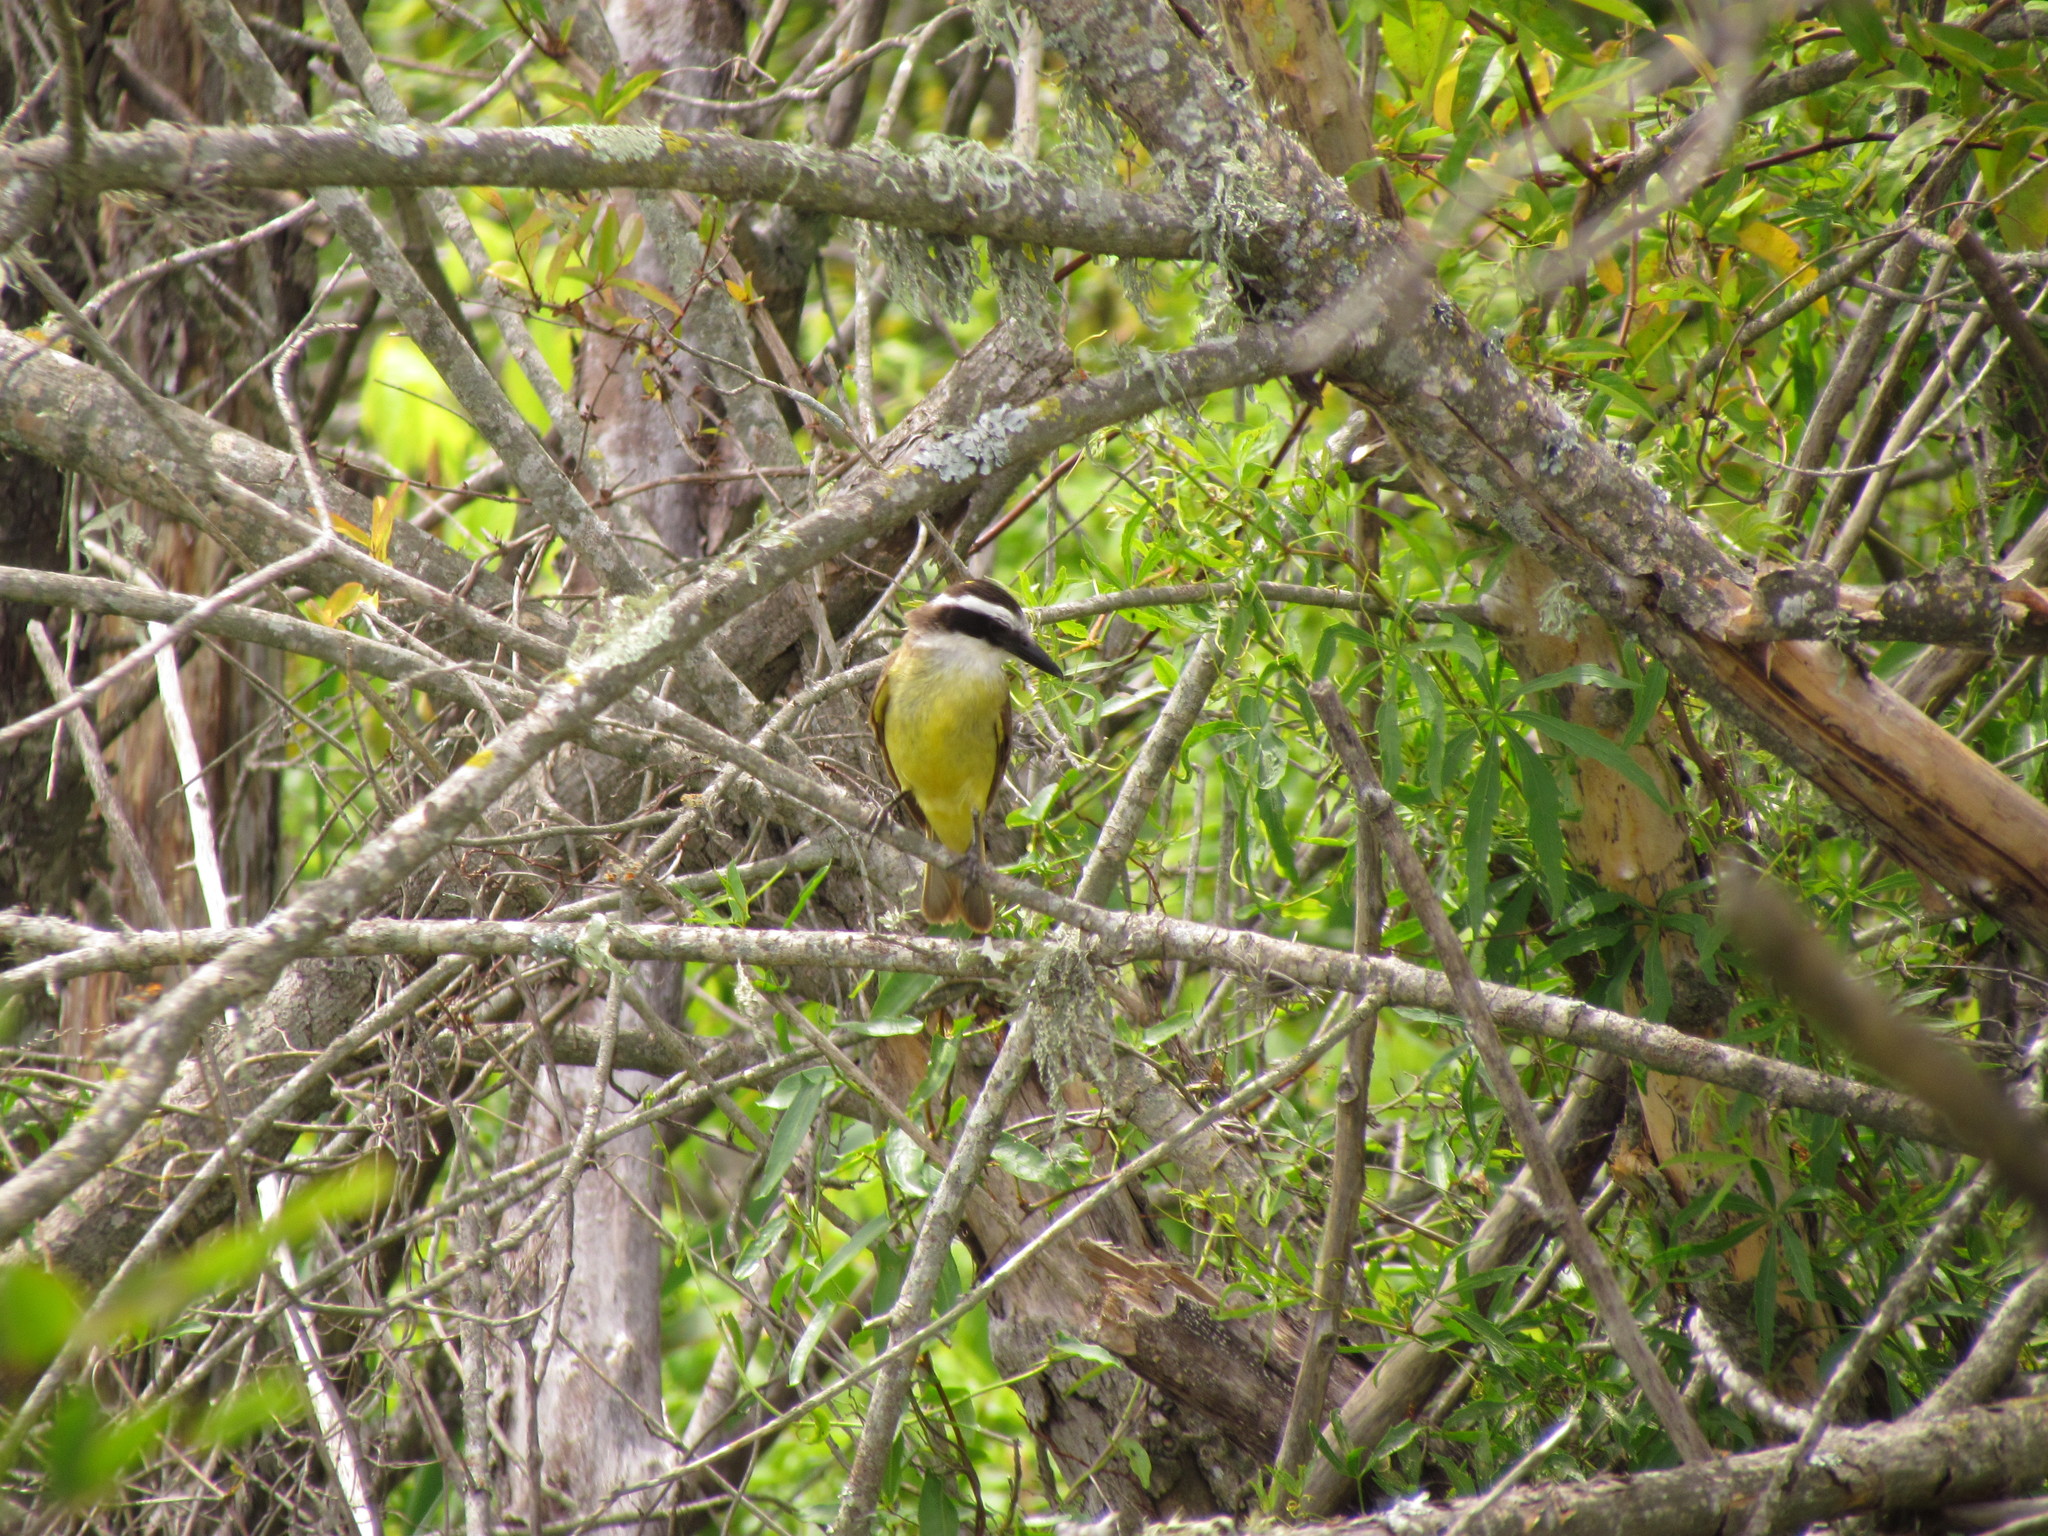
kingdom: Animalia
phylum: Chordata
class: Aves
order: Passeriformes
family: Tyrannidae
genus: Pitangus
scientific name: Pitangus sulphuratus
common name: Great kiskadee
